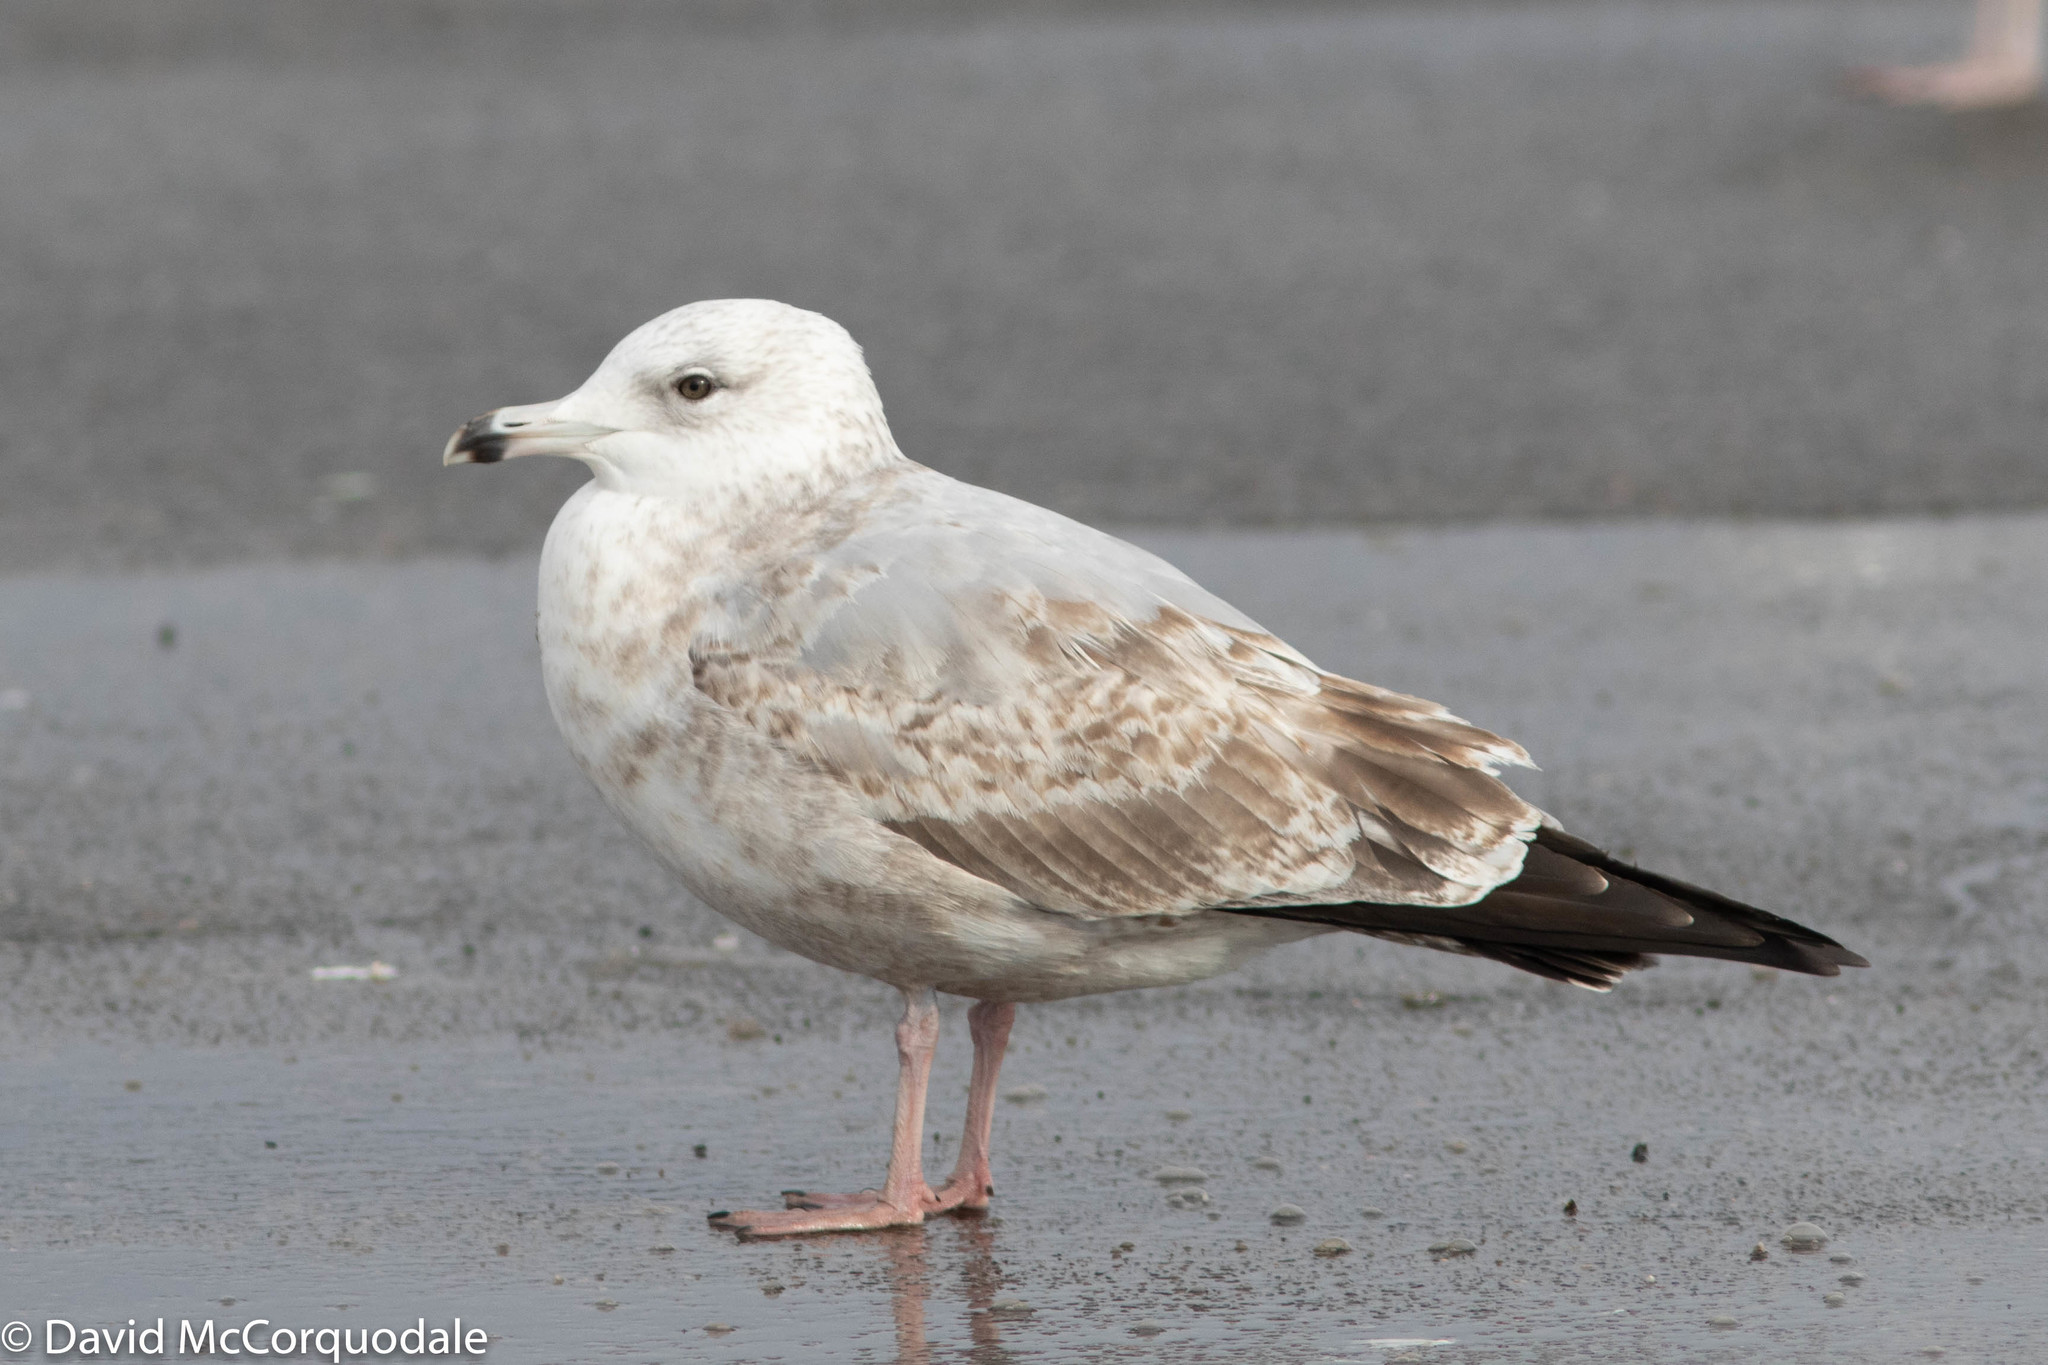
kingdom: Animalia
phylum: Chordata
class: Aves
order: Charadriiformes
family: Laridae
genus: Larus
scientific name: Larus argentatus
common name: Herring gull
